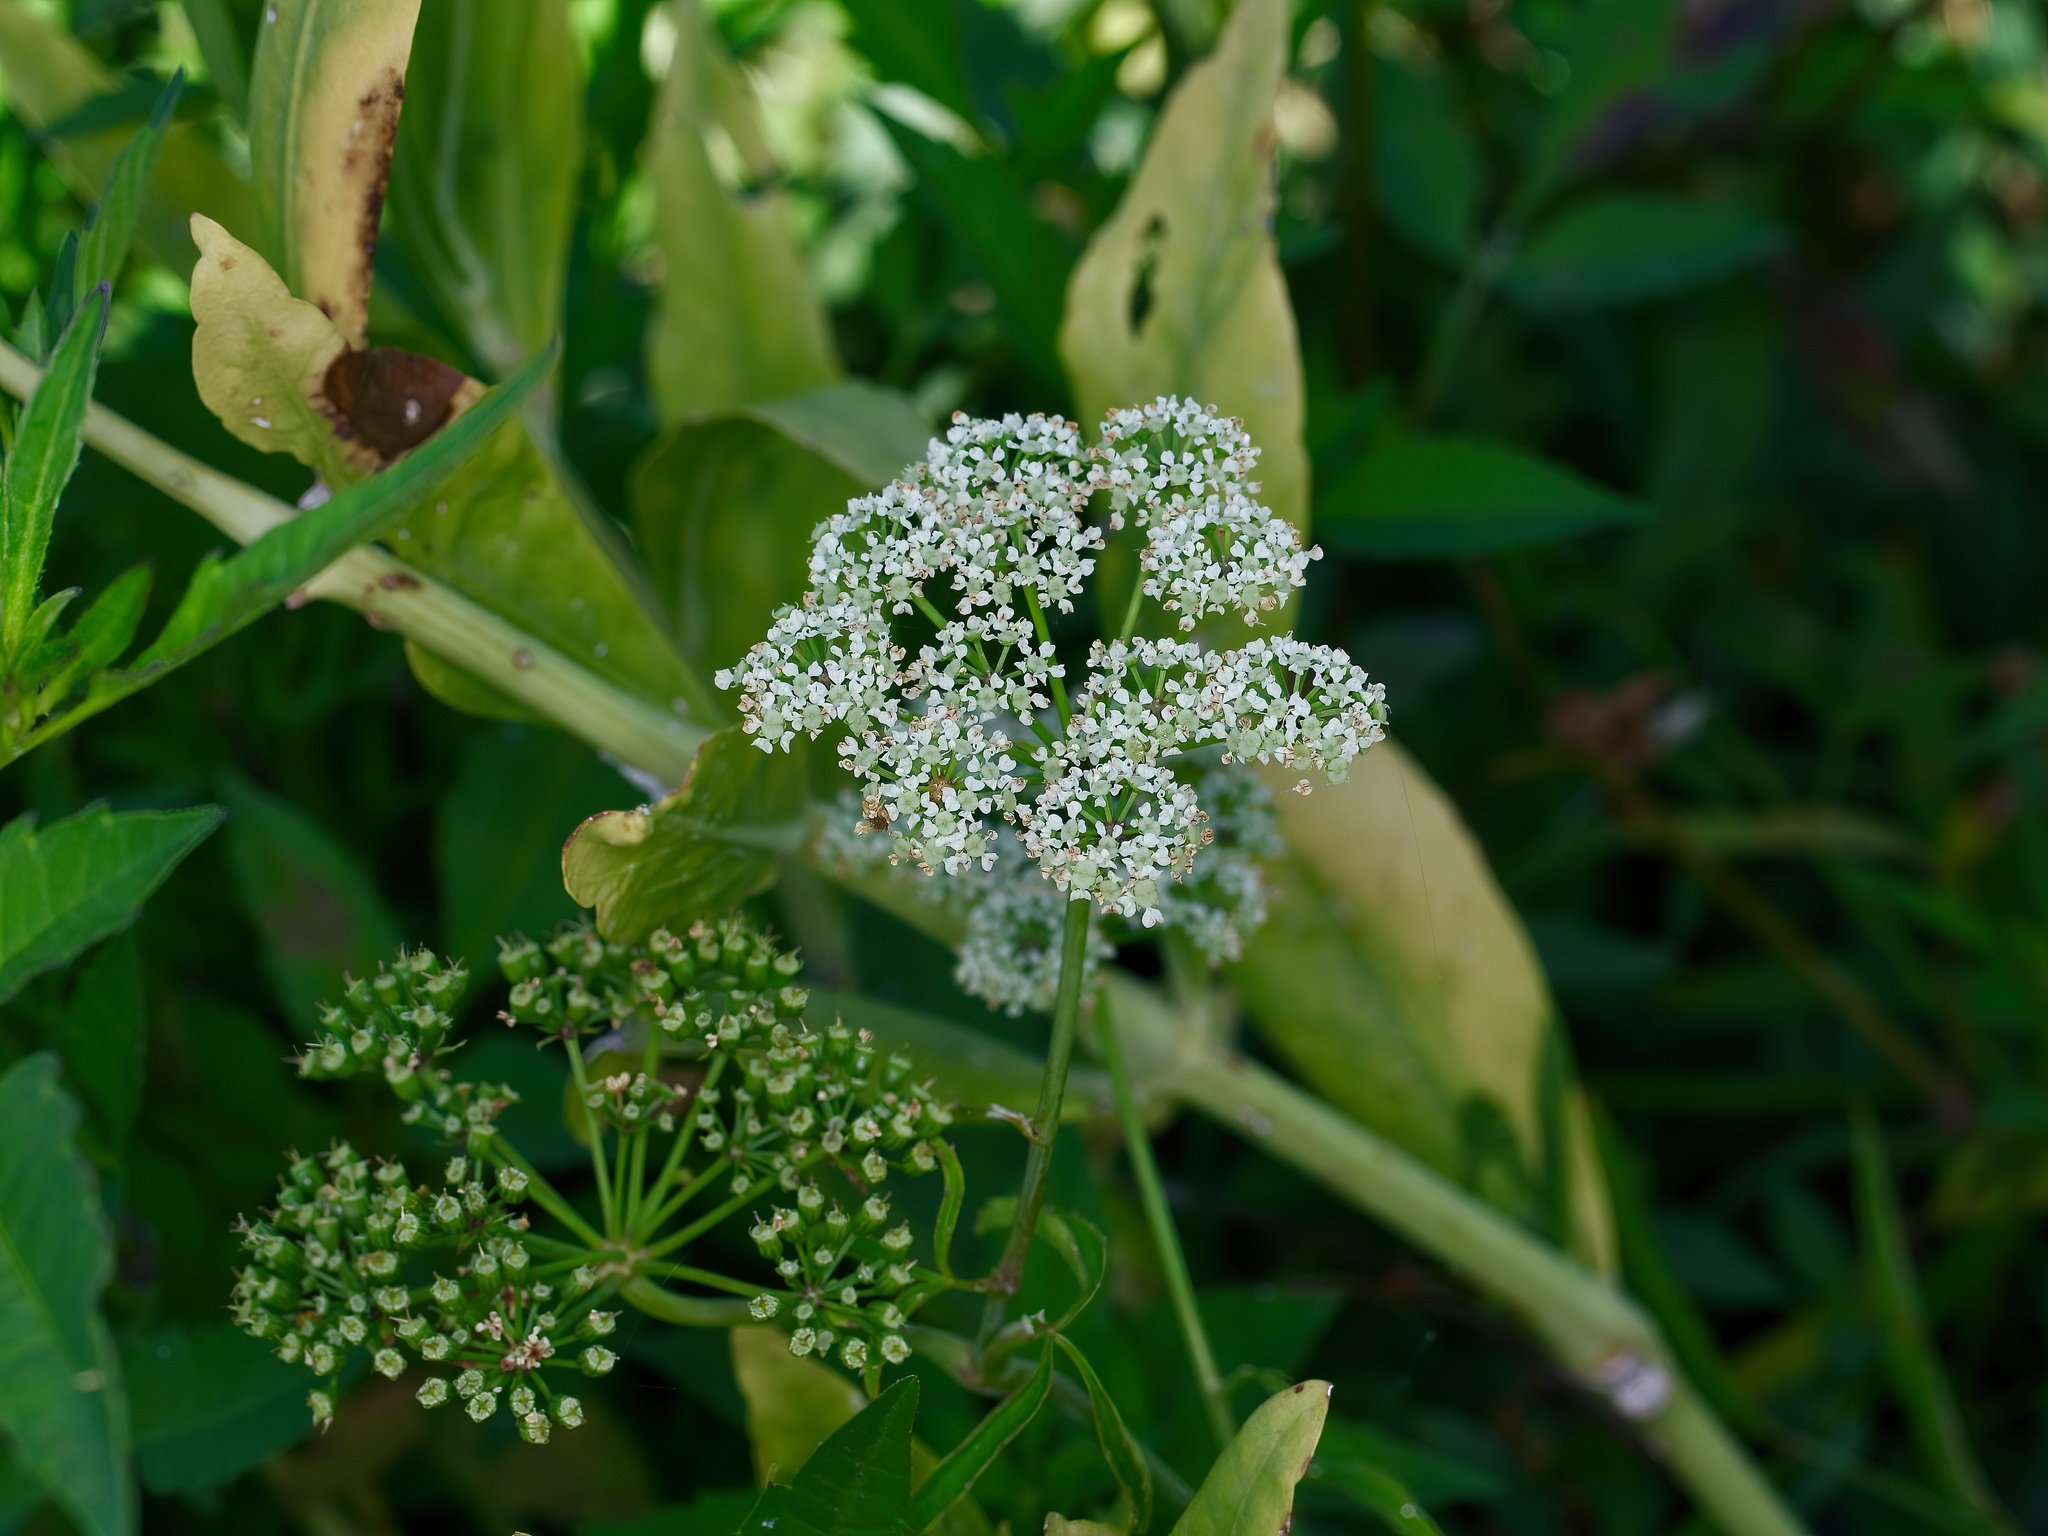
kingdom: Plantae
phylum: Tracheophyta
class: Magnoliopsida
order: Apiales
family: Apiaceae
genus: Cicuta
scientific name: Cicuta maculata
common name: Spotted cowbane
